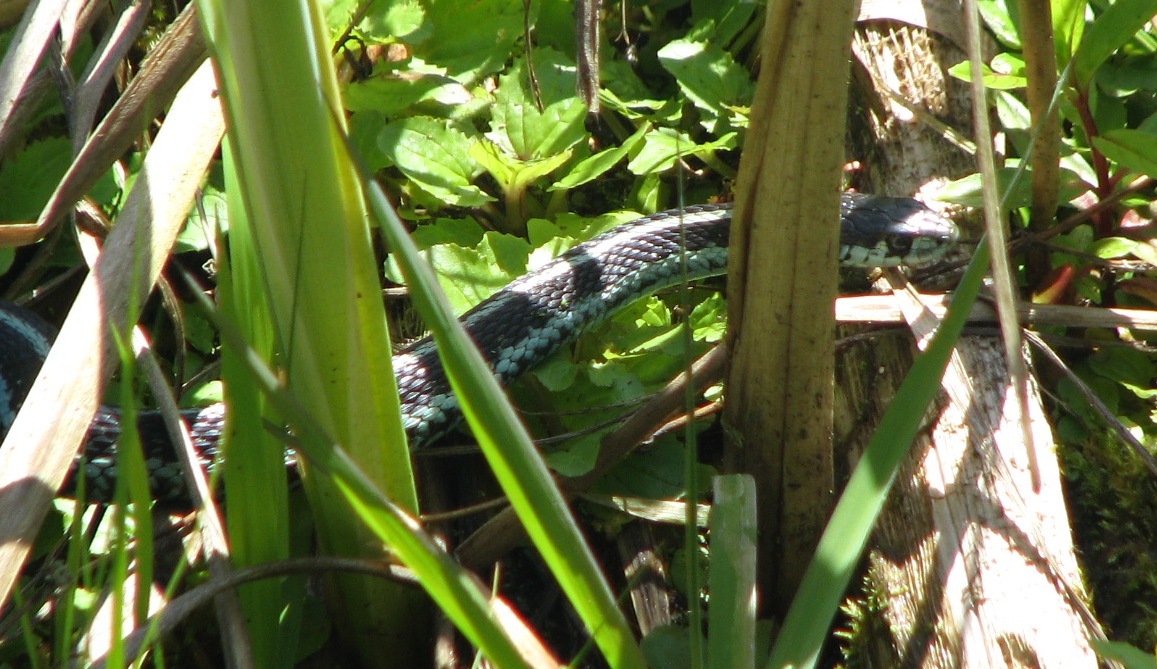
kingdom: Animalia
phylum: Chordata
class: Squamata
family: Colubridae
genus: Thamnophis
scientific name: Thamnophis sirtalis
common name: Common garter snake
